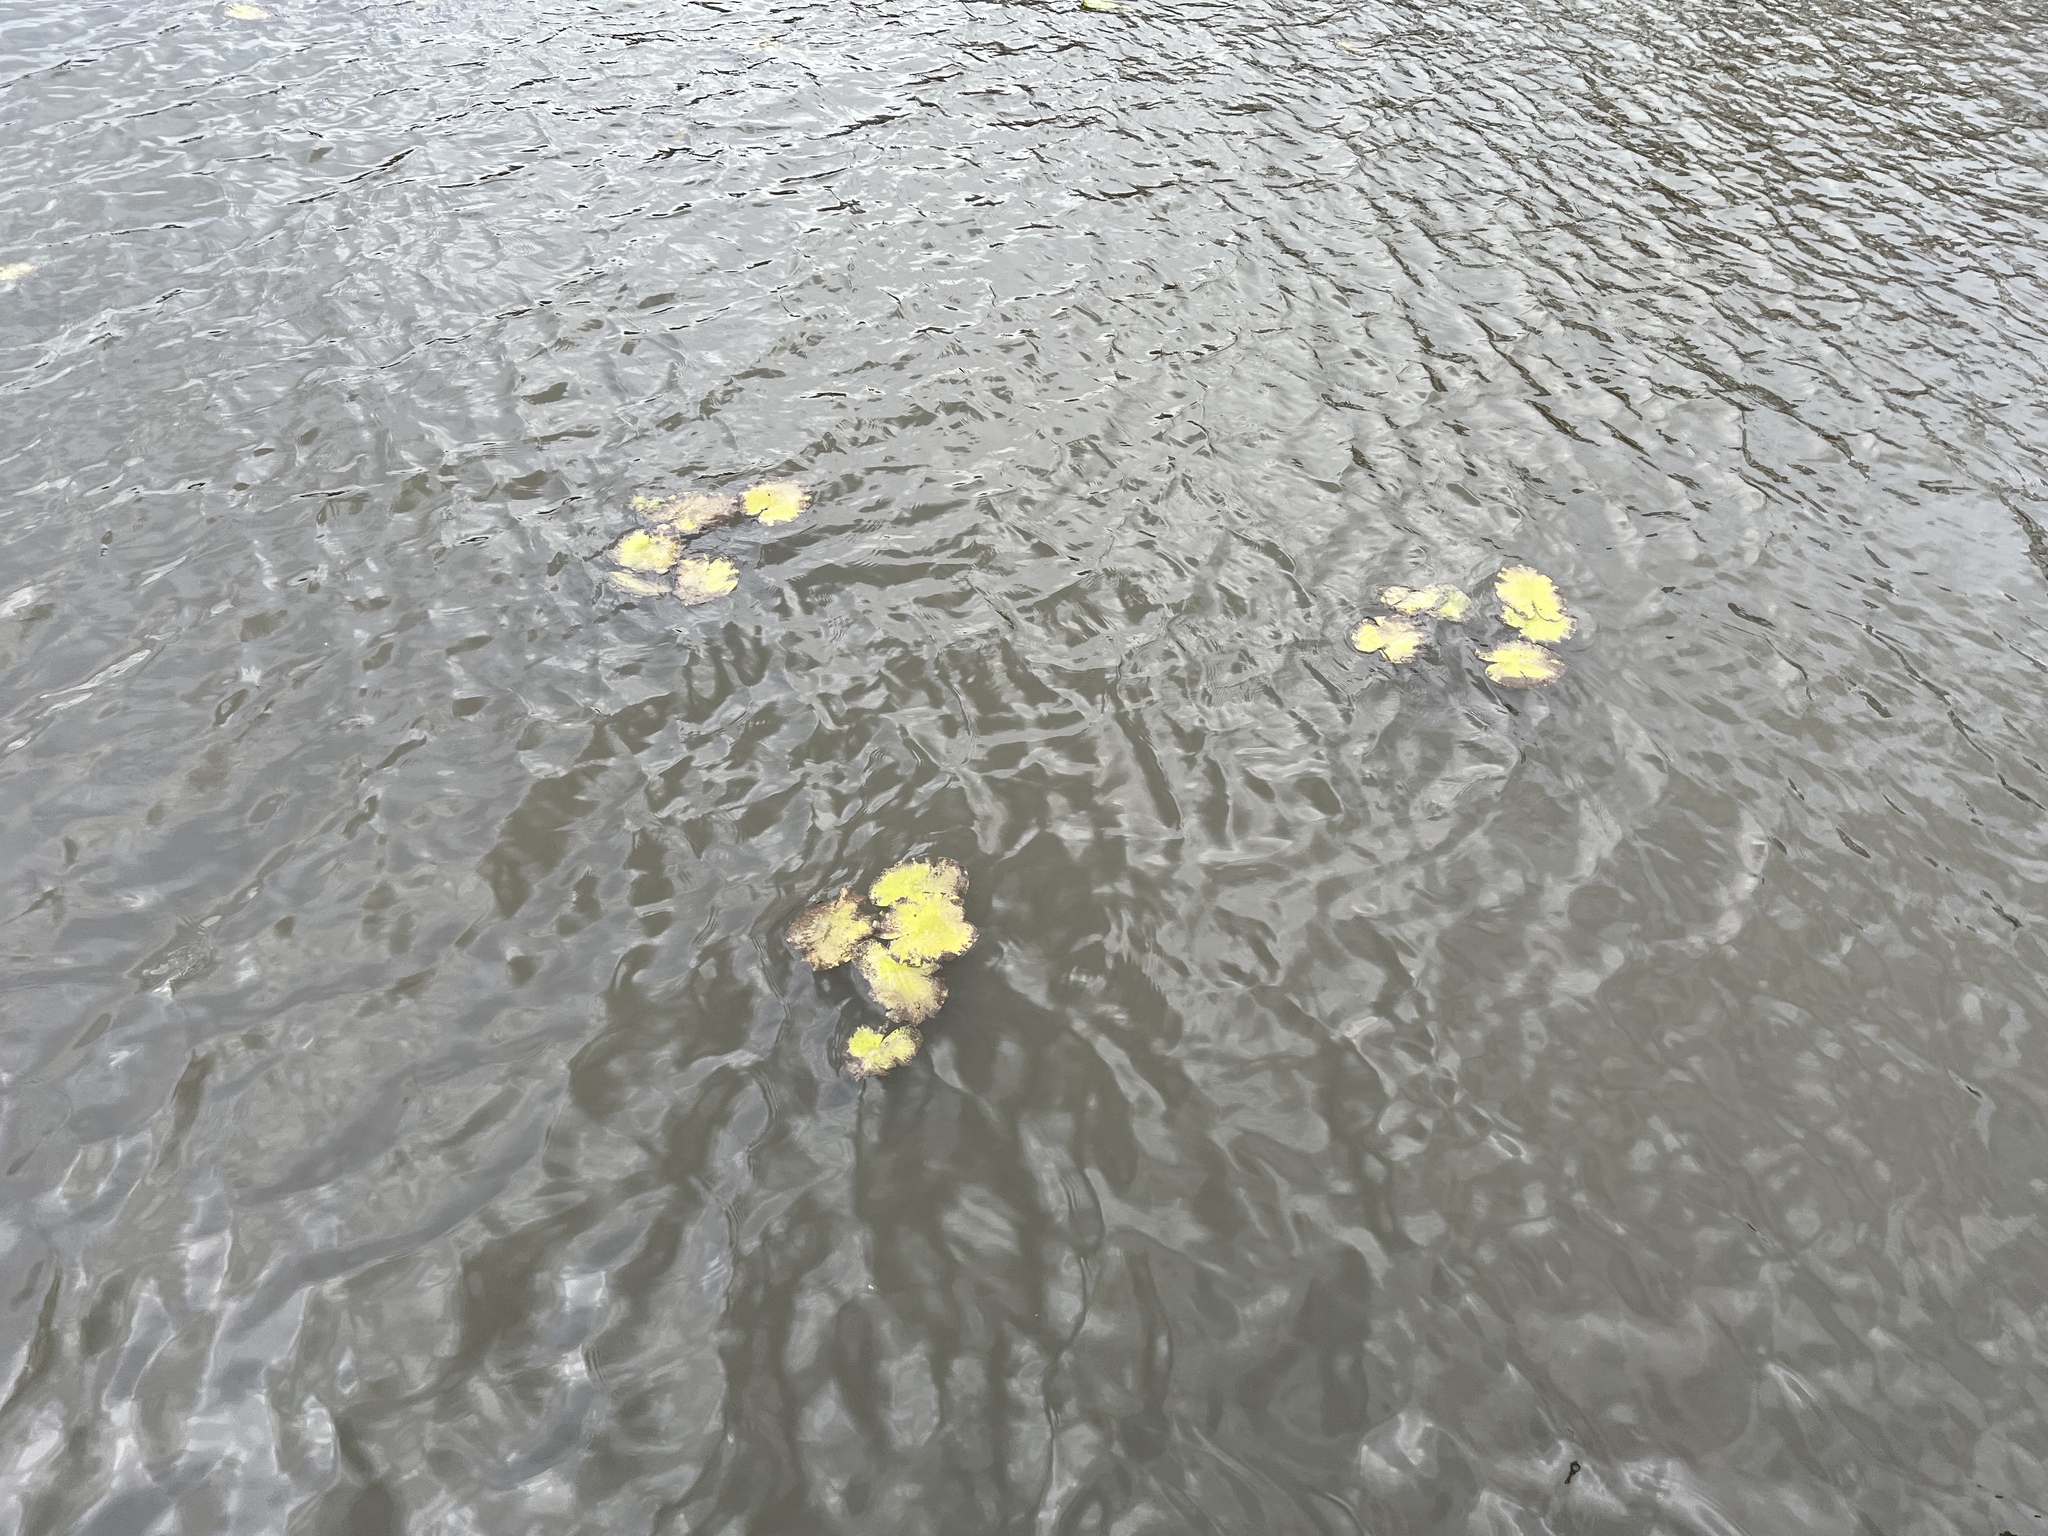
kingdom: Plantae
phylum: Tracheophyta
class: Magnoliopsida
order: Nymphaeales
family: Nymphaeaceae
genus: Nuphar
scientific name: Nuphar lutea
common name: Yellow water-lily
